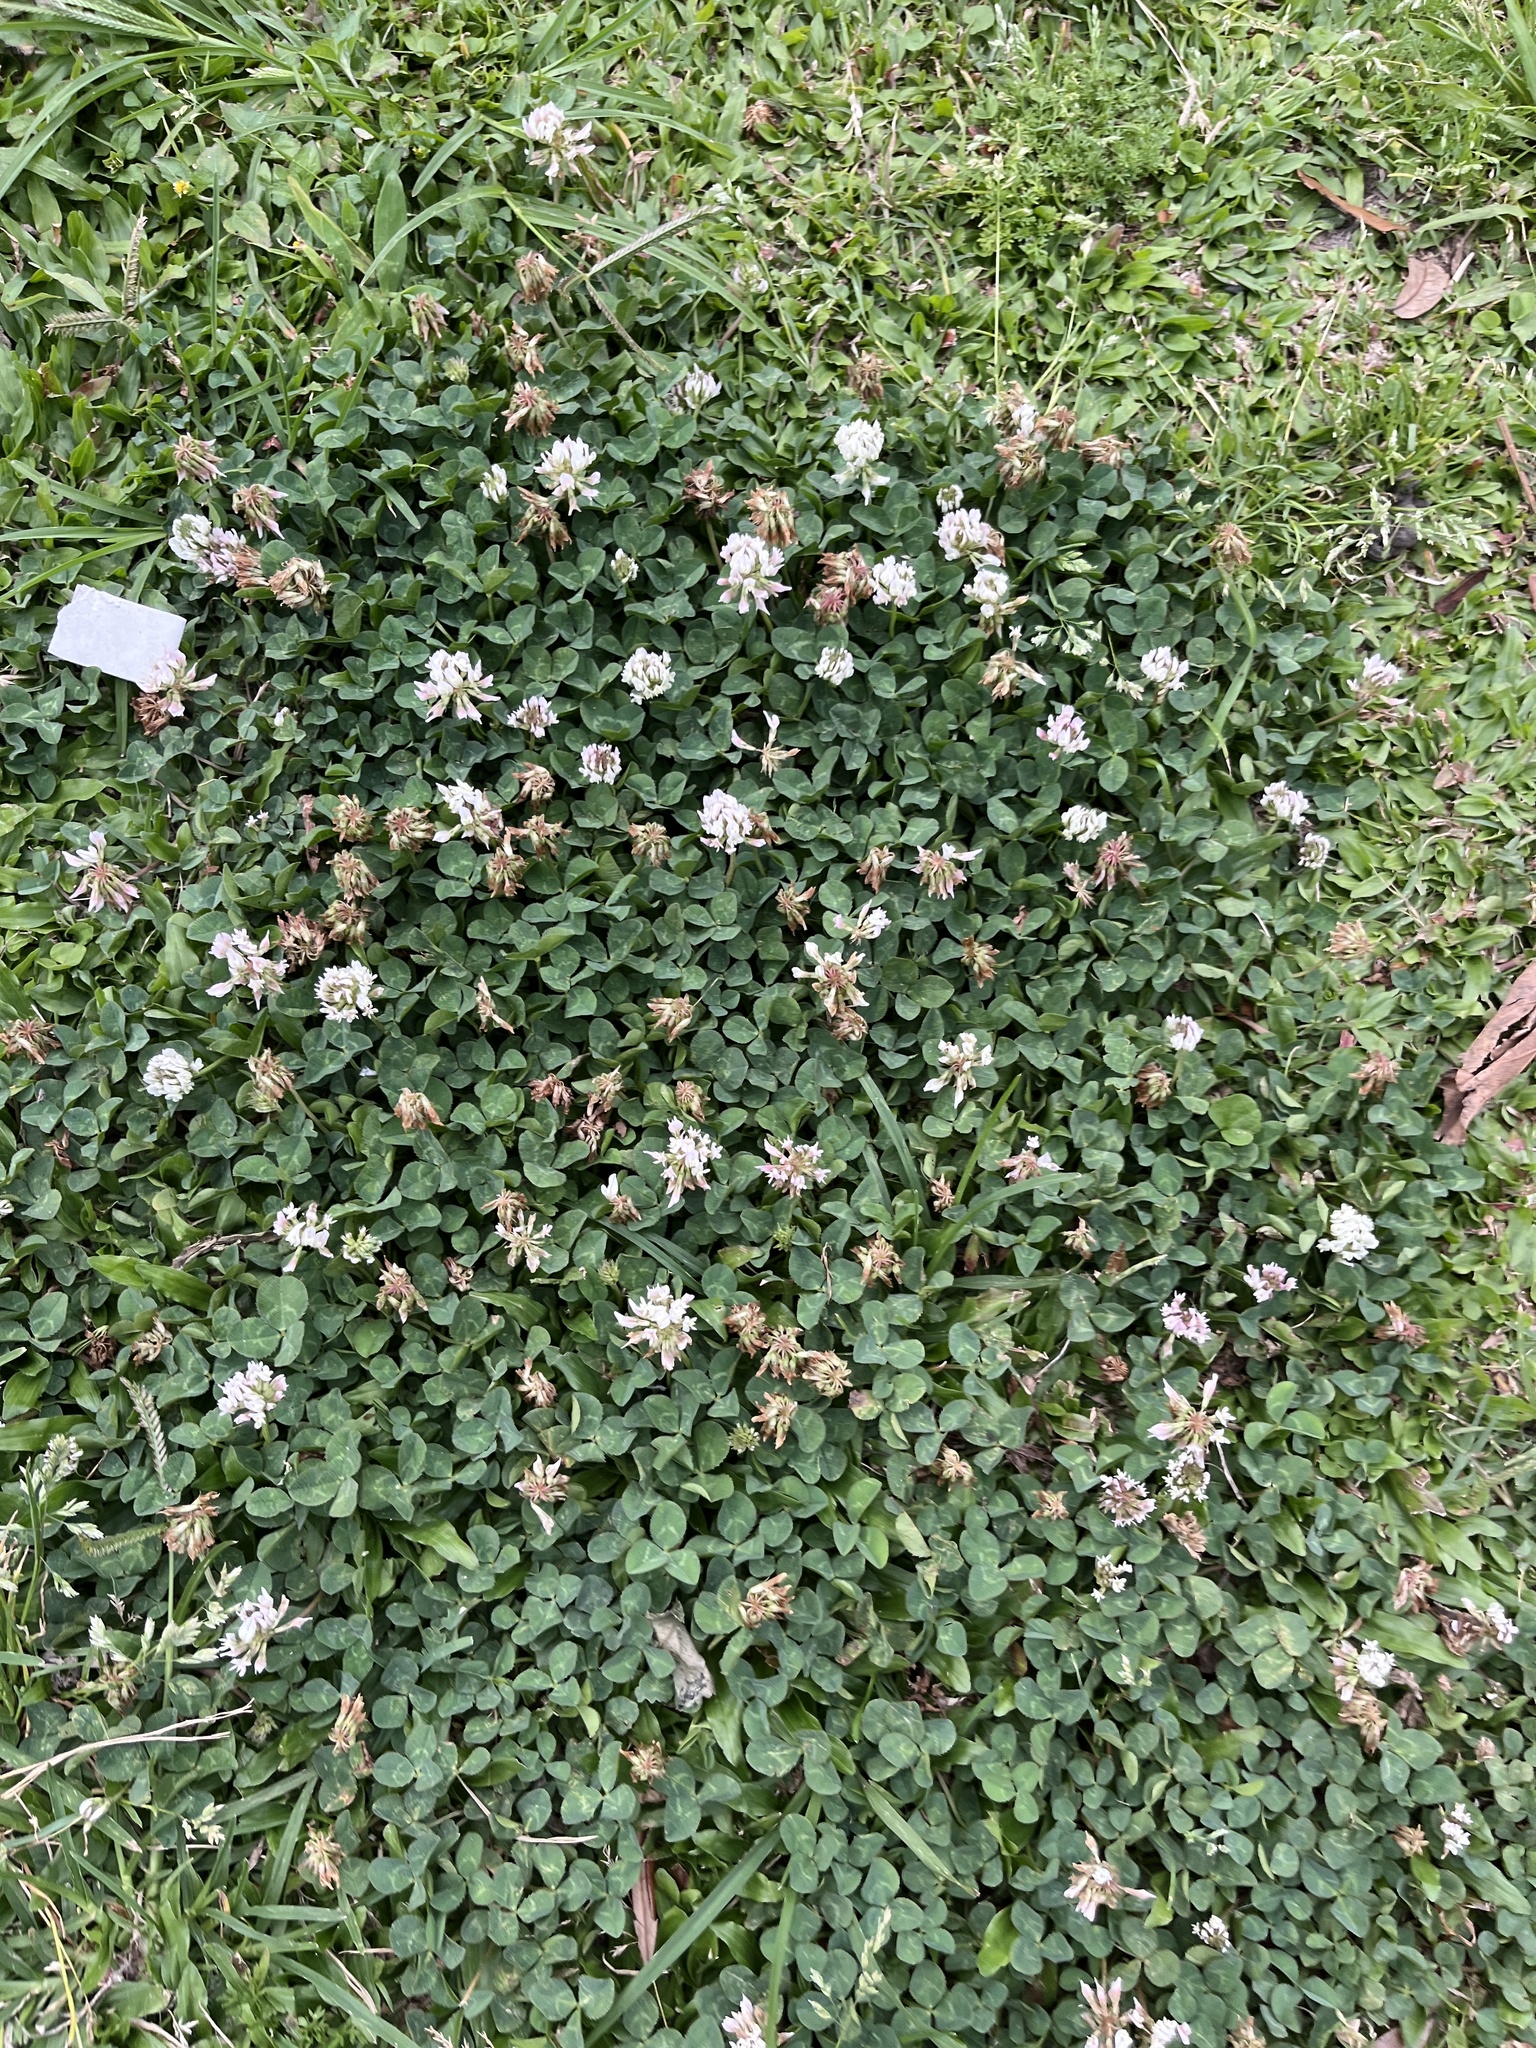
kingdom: Plantae
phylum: Tracheophyta
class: Magnoliopsida
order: Fabales
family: Fabaceae
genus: Trifolium
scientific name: Trifolium repens
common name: White clover
